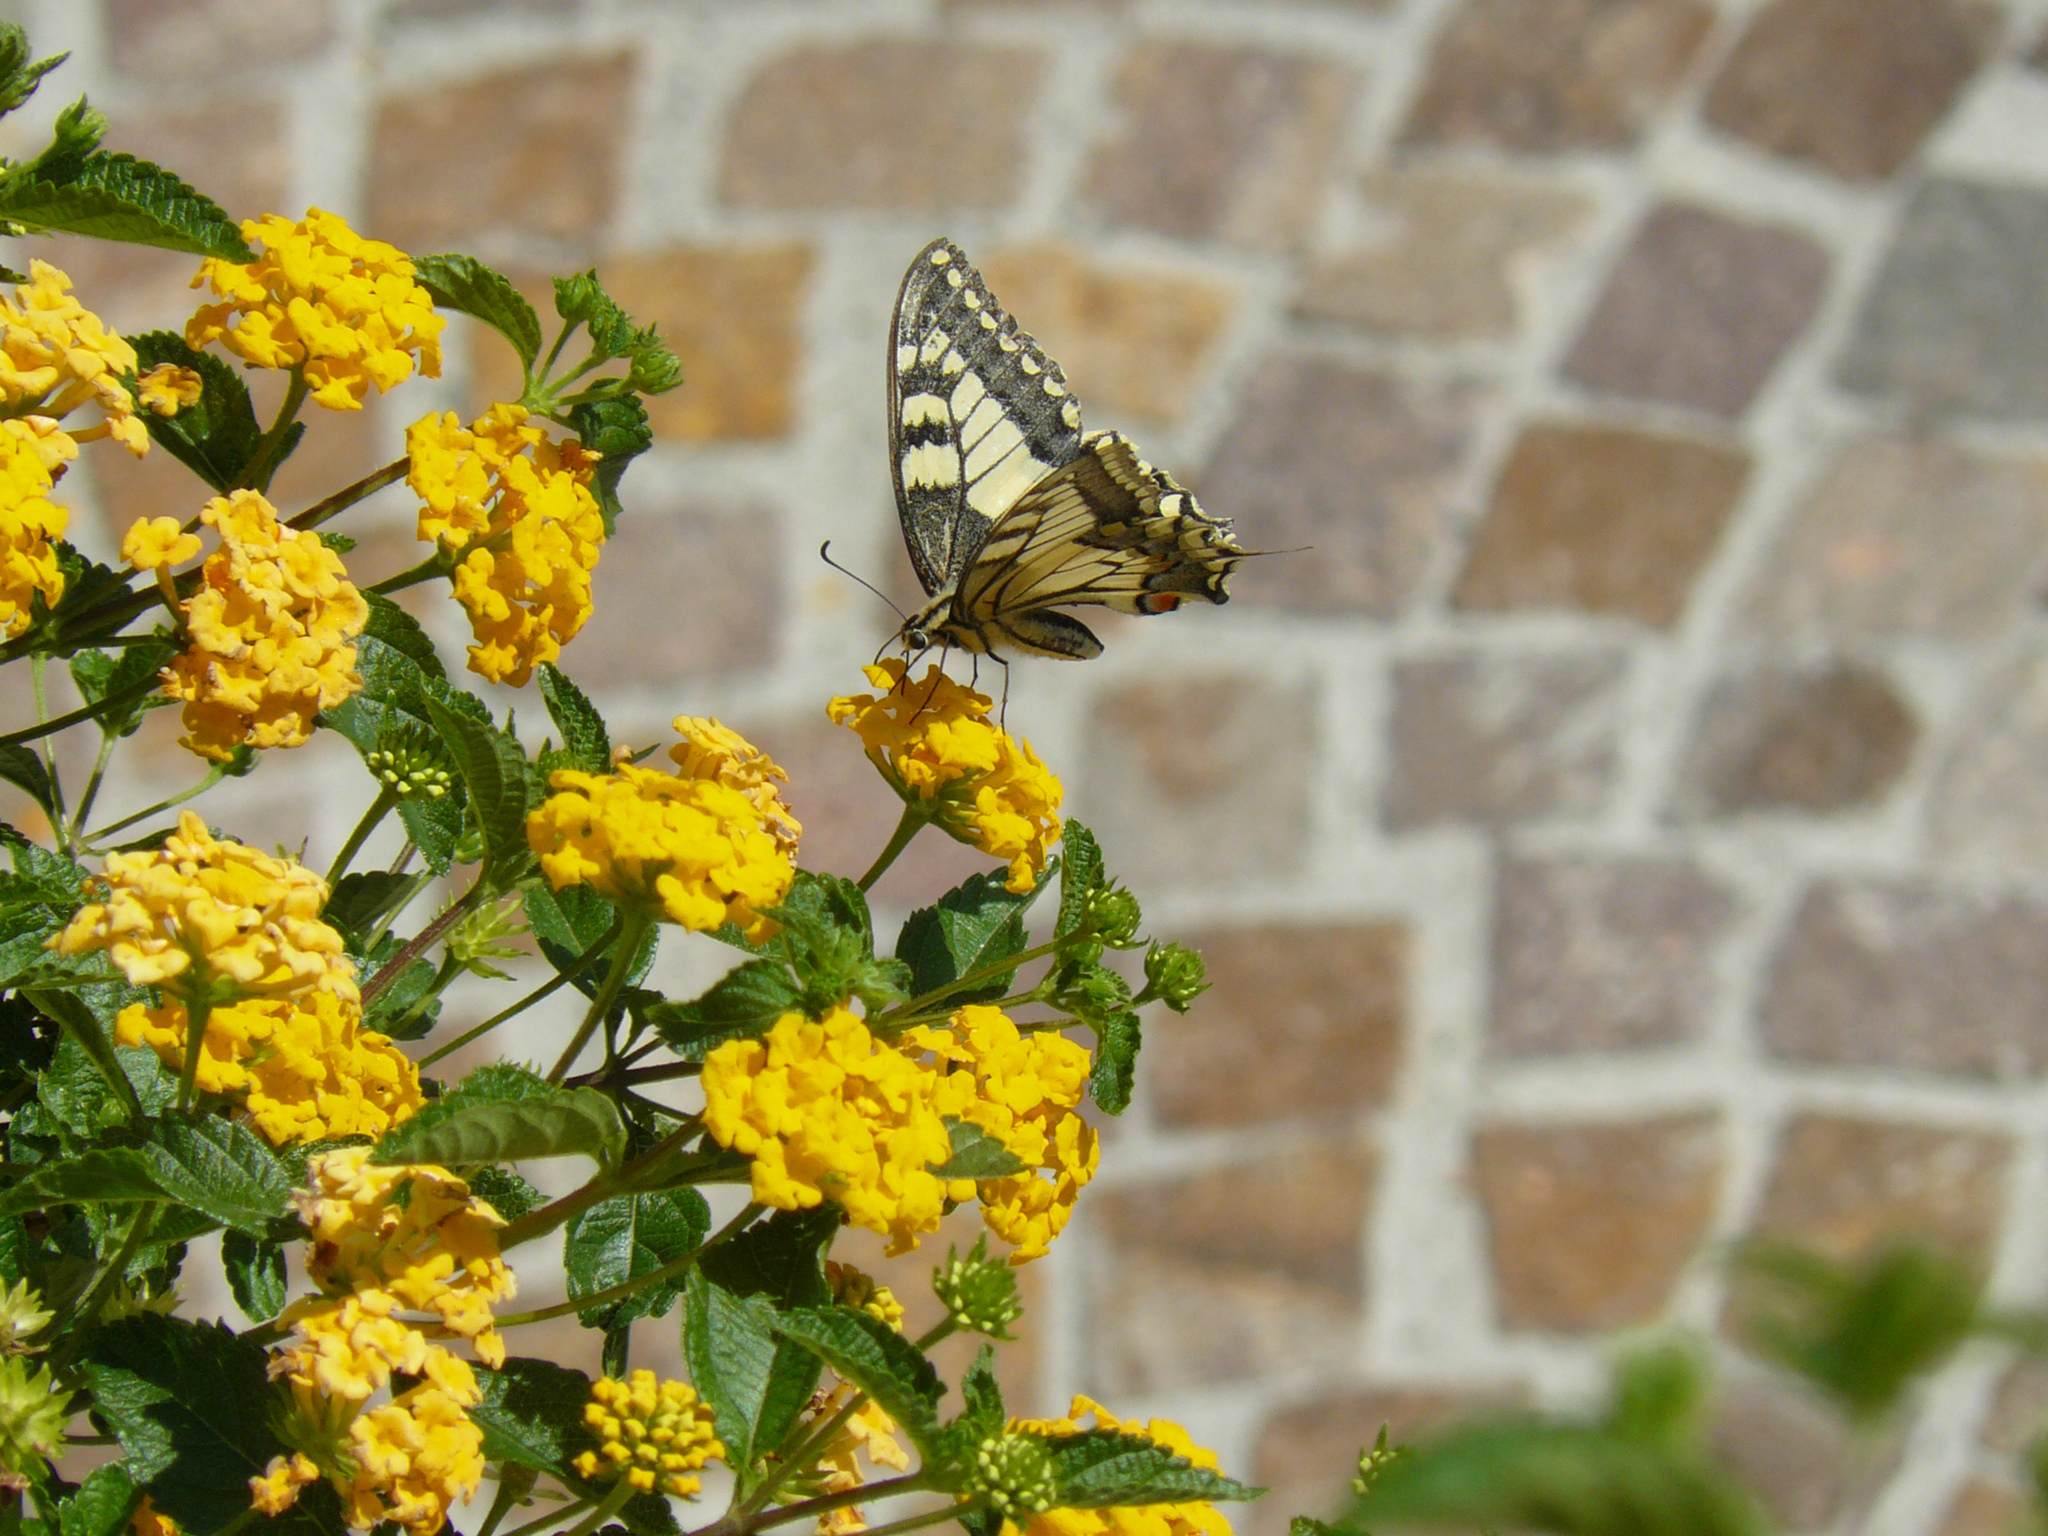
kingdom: Animalia
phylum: Arthropoda
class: Insecta
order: Lepidoptera
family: Papilionidae
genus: Papilio
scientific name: Papilio machaon
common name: Swallowtail
